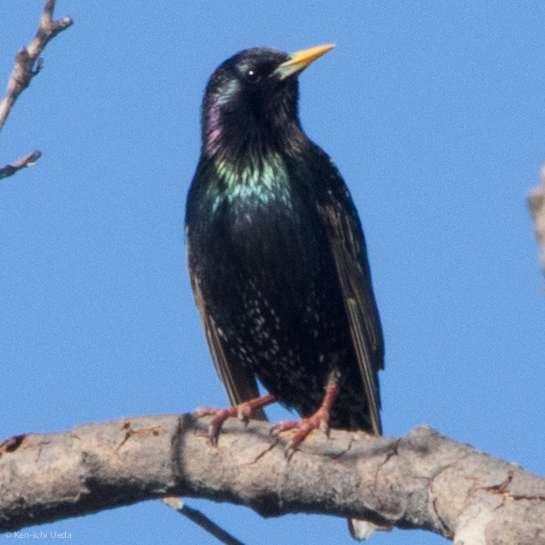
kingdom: Animalia
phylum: Chordata
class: Aves
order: Passeriformes
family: Sturnidae
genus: Sturnus
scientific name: Sturnus vulgaris
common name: Common starling
